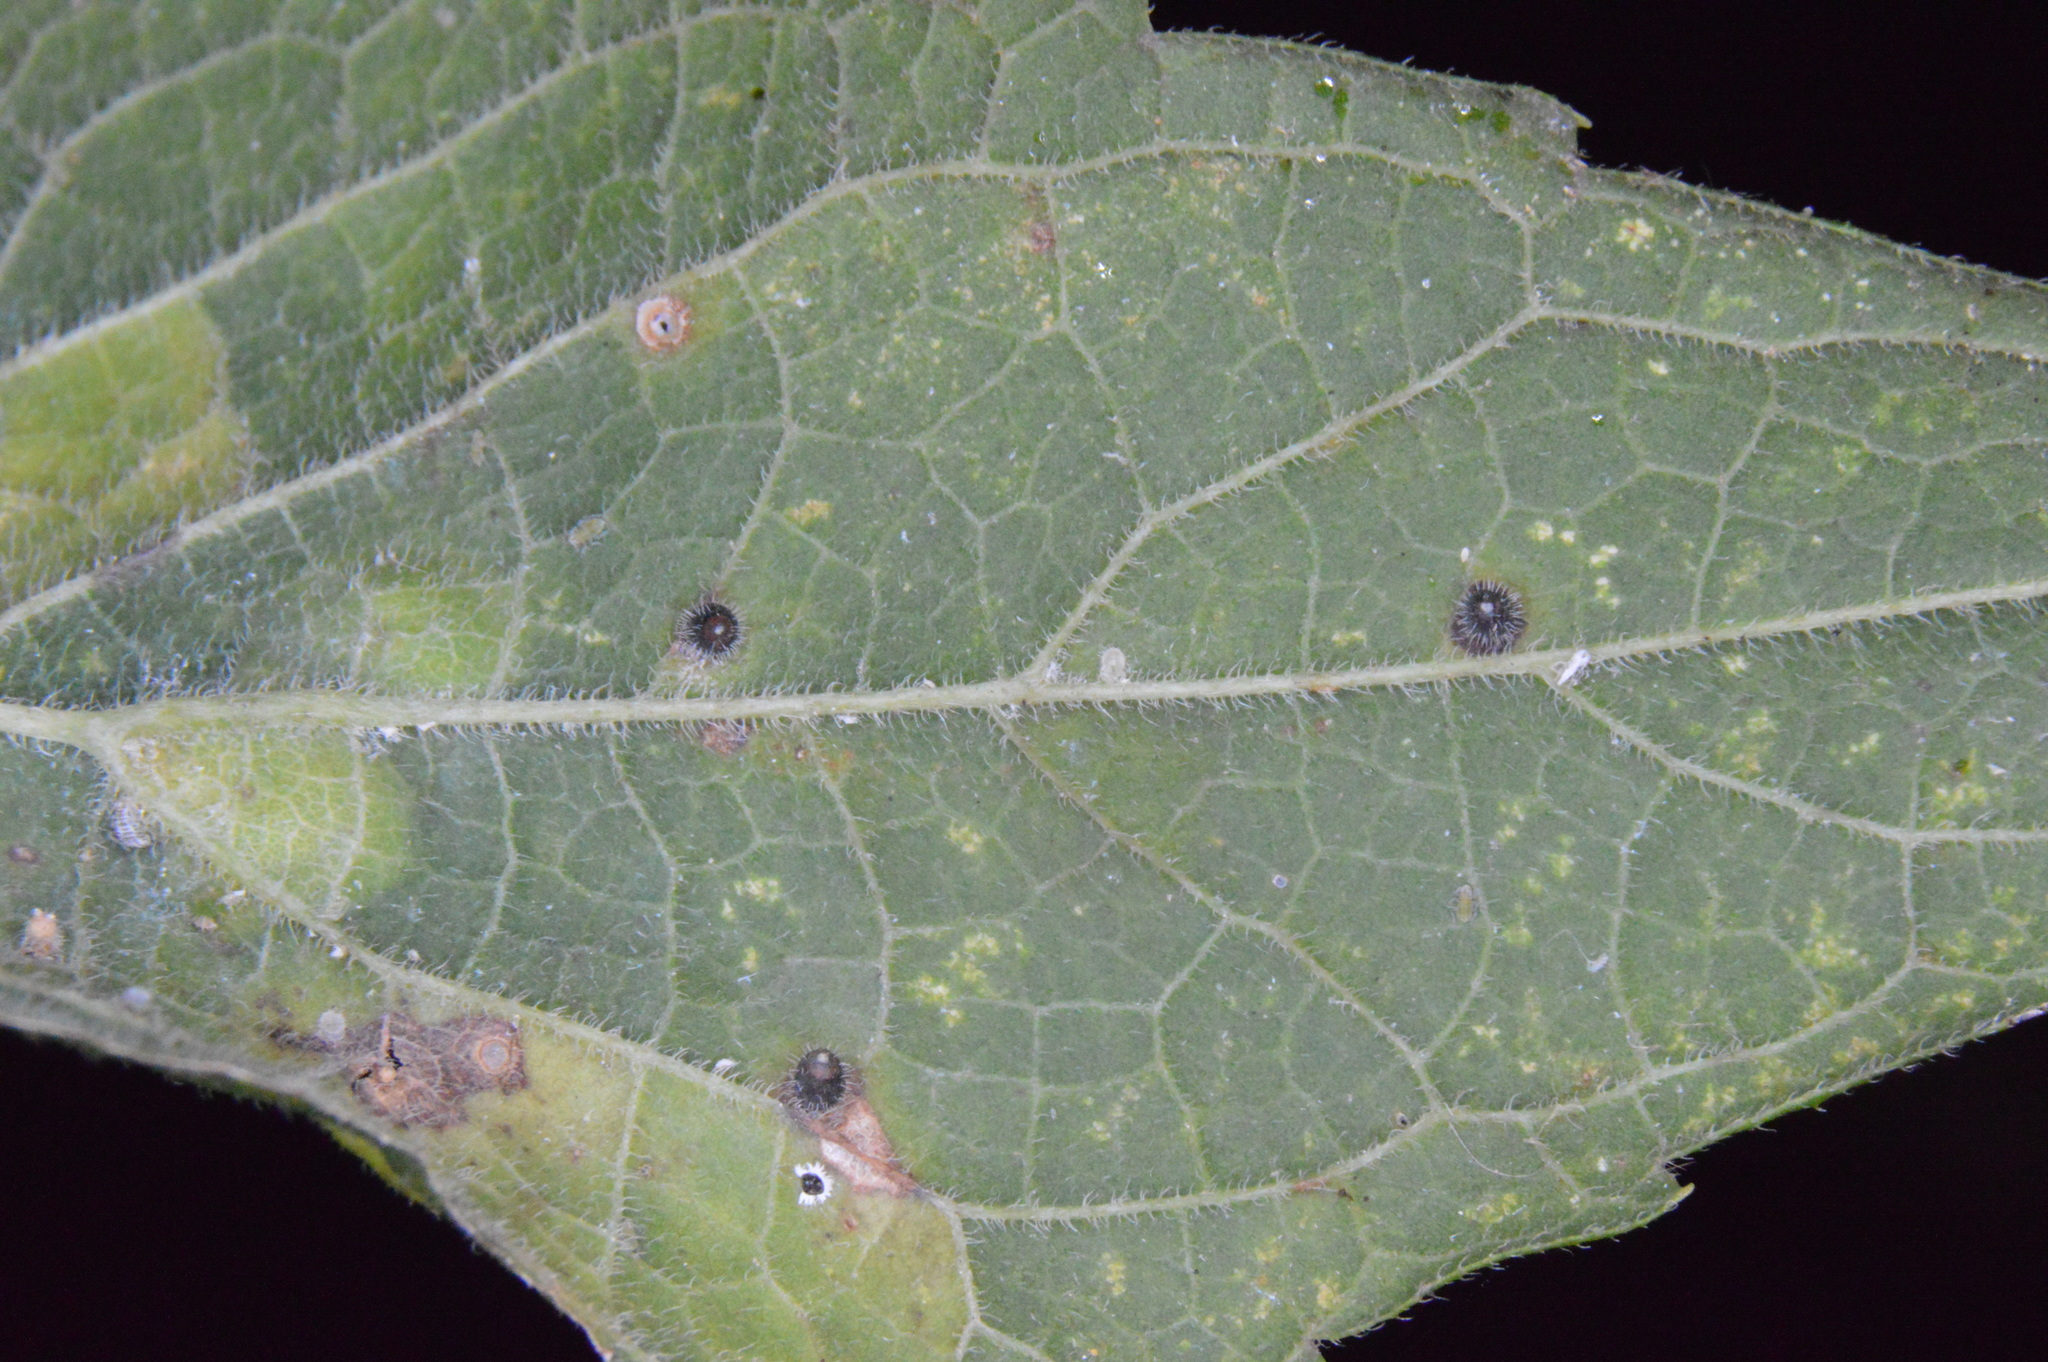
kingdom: Animalia
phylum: Arthropoda
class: Insecta
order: Diptera
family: Cecidomyiidae
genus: Celticecis
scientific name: Celticecis cupiformis
